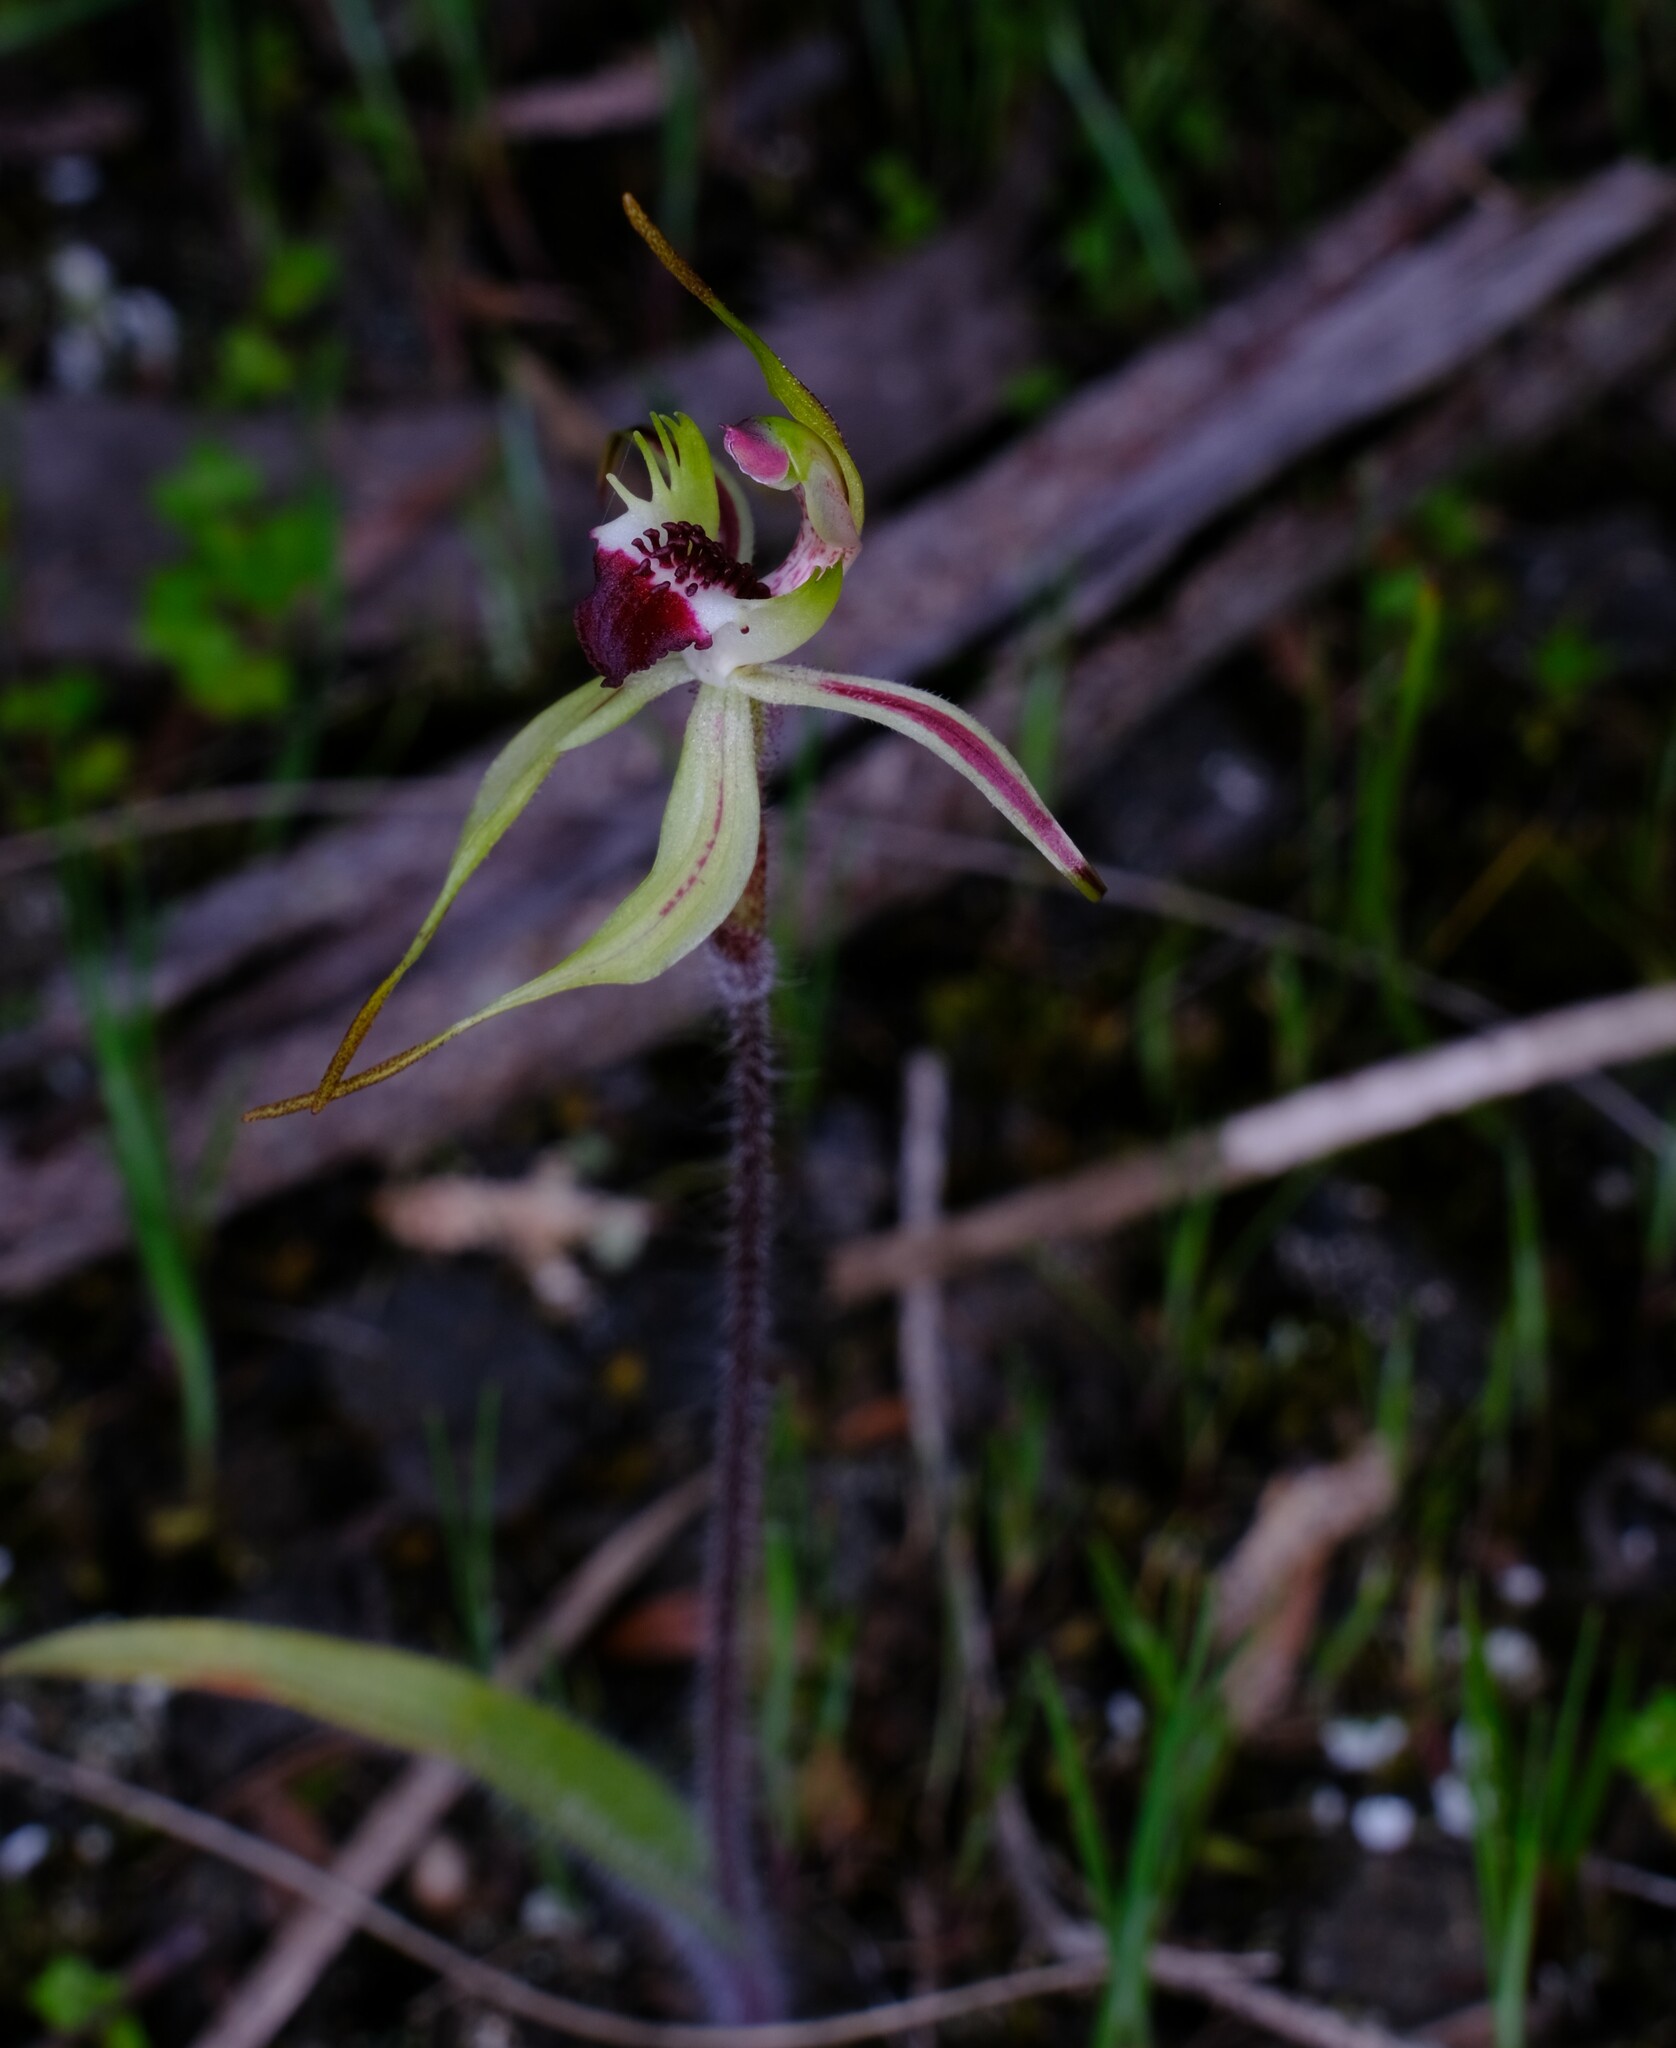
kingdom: Plantae
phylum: Tracheophyta
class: Liliopsida
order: Asparagales
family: Orchidaceae
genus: Caladenia
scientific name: Caladenia parva
